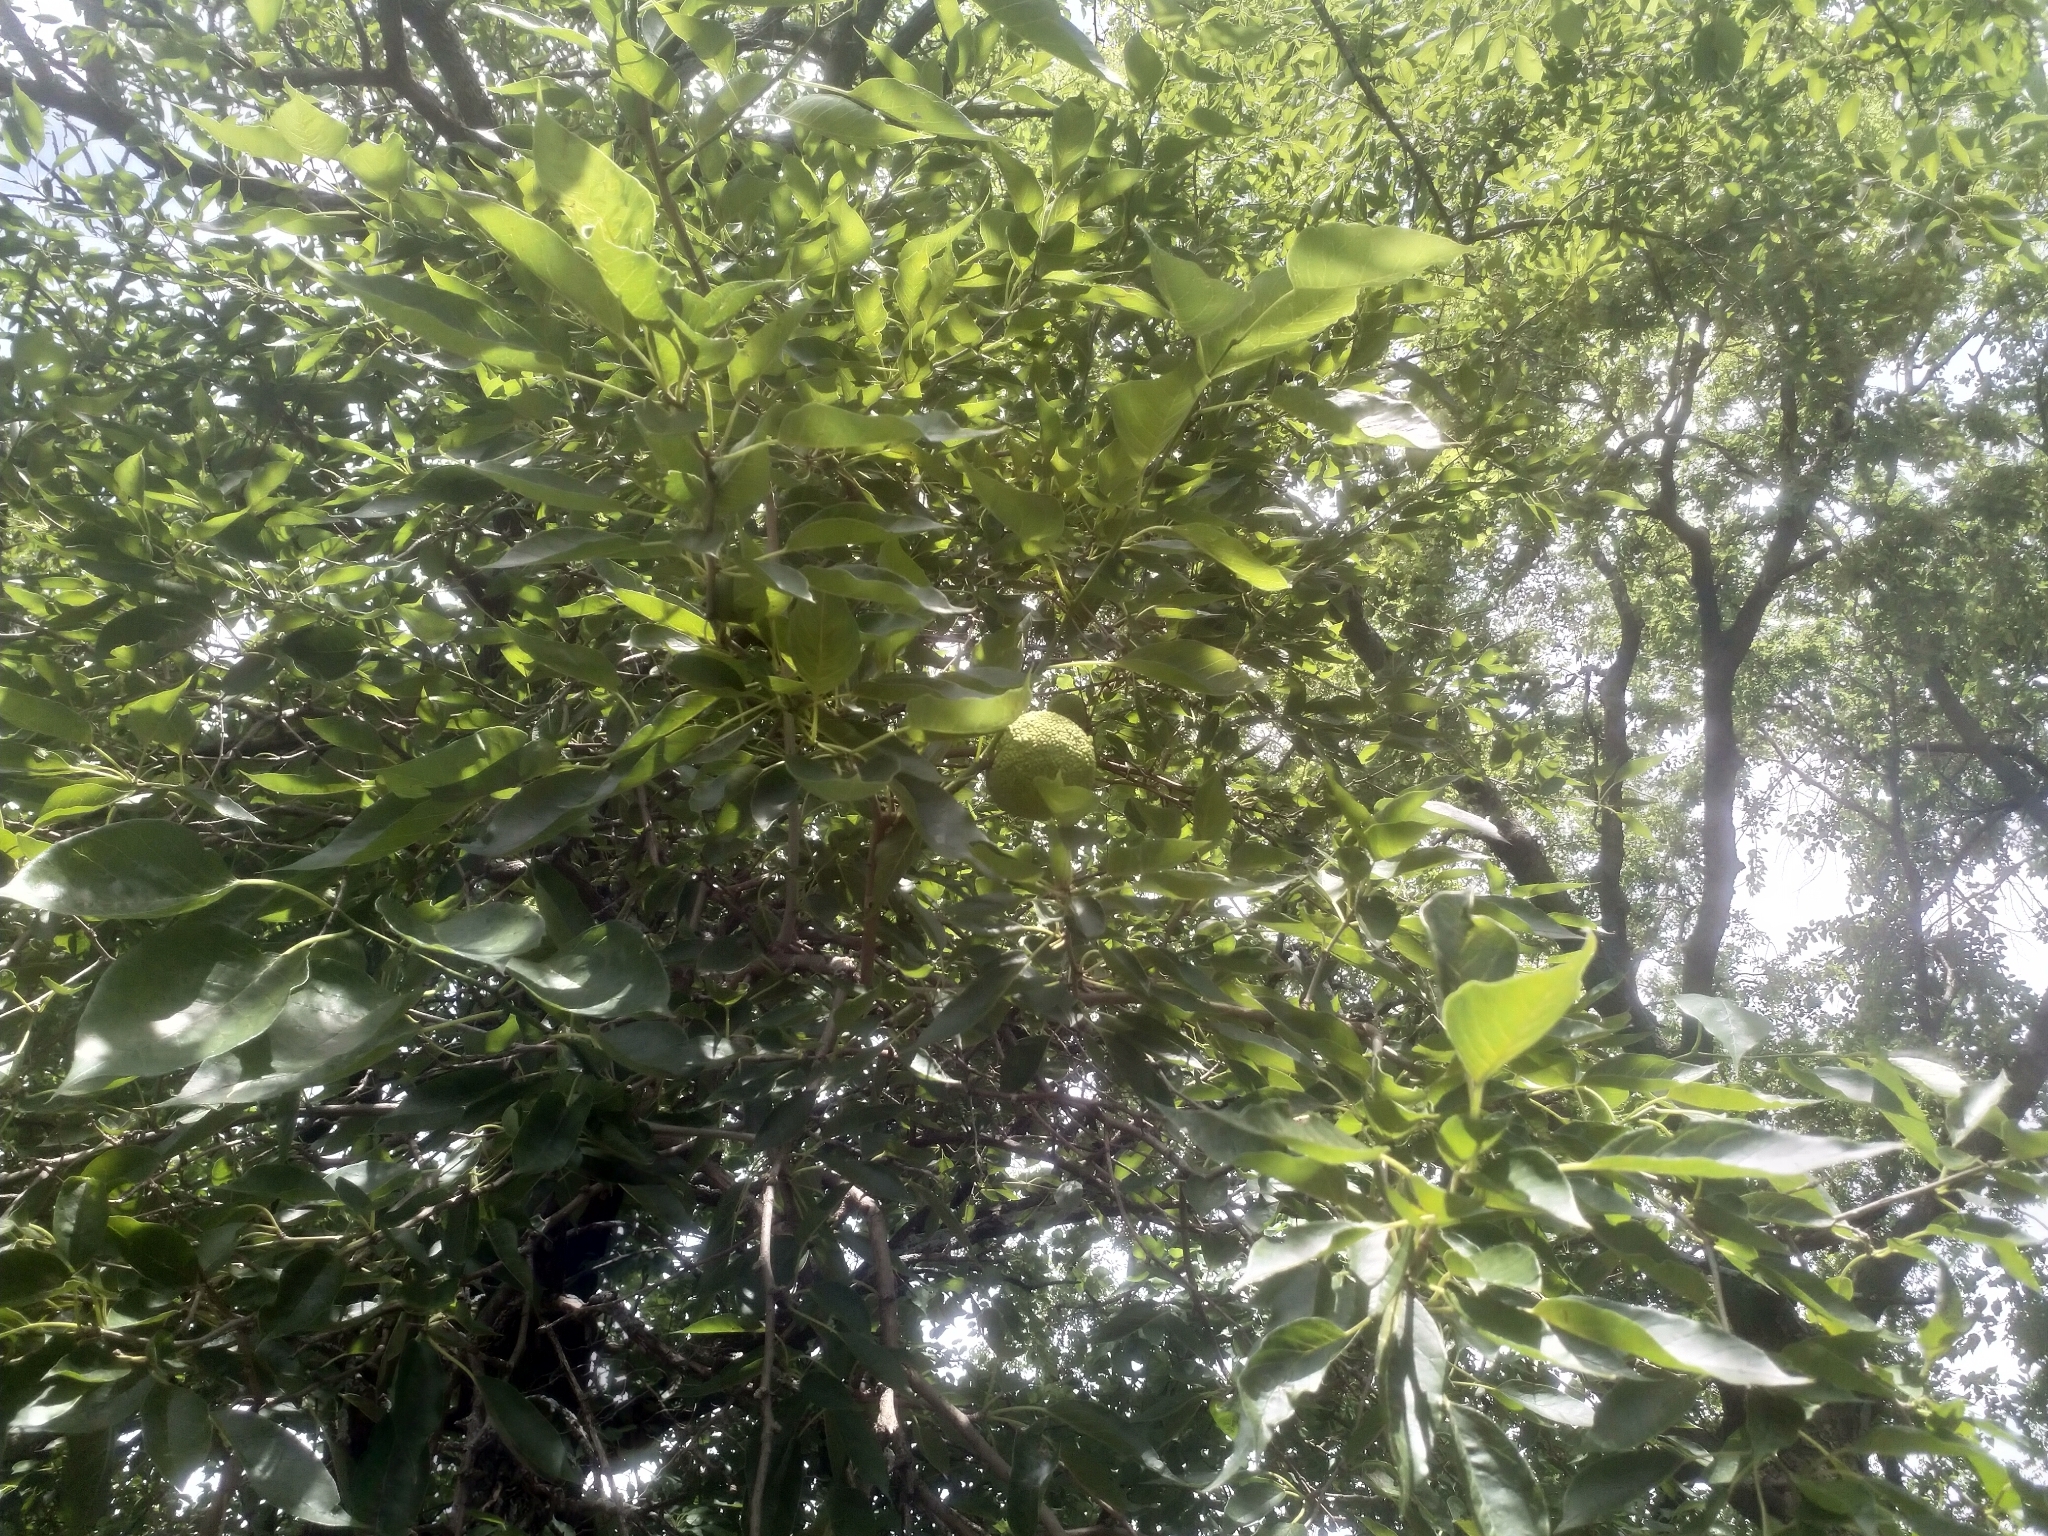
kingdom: Plantae
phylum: Tracheophyta
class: Magnoliopsida
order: Rosales
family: Moraceae
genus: Maclura
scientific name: Maclura pomifera
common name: Osage-orange
